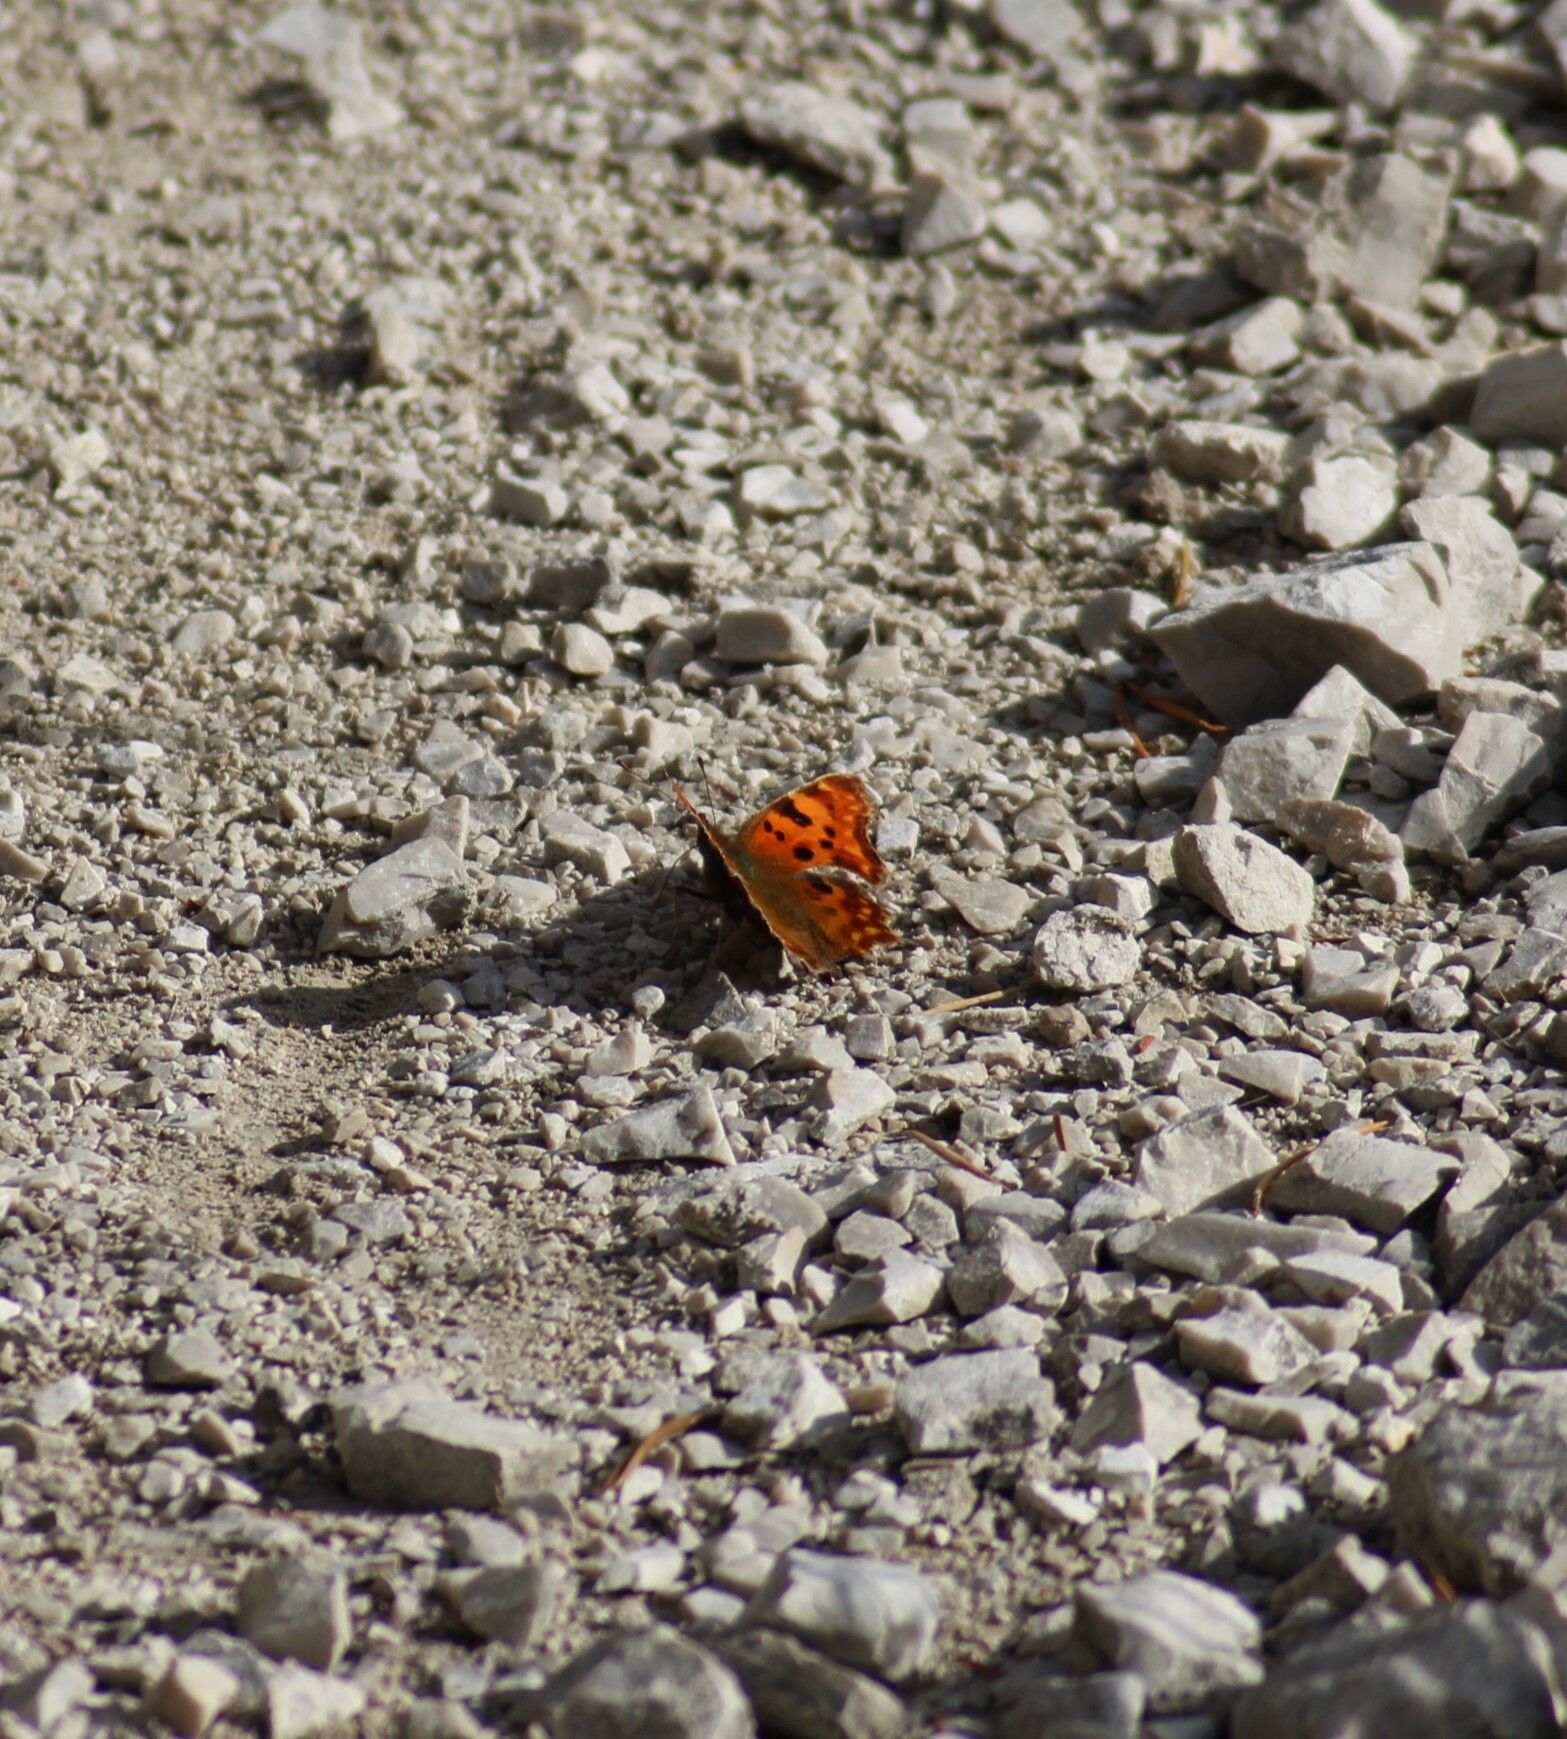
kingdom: Animalia
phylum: Arthropoda
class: Insecta
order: Lepidoptera
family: Nymphalidae
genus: Polygonia
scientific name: Polygonia c-album
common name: Comma
